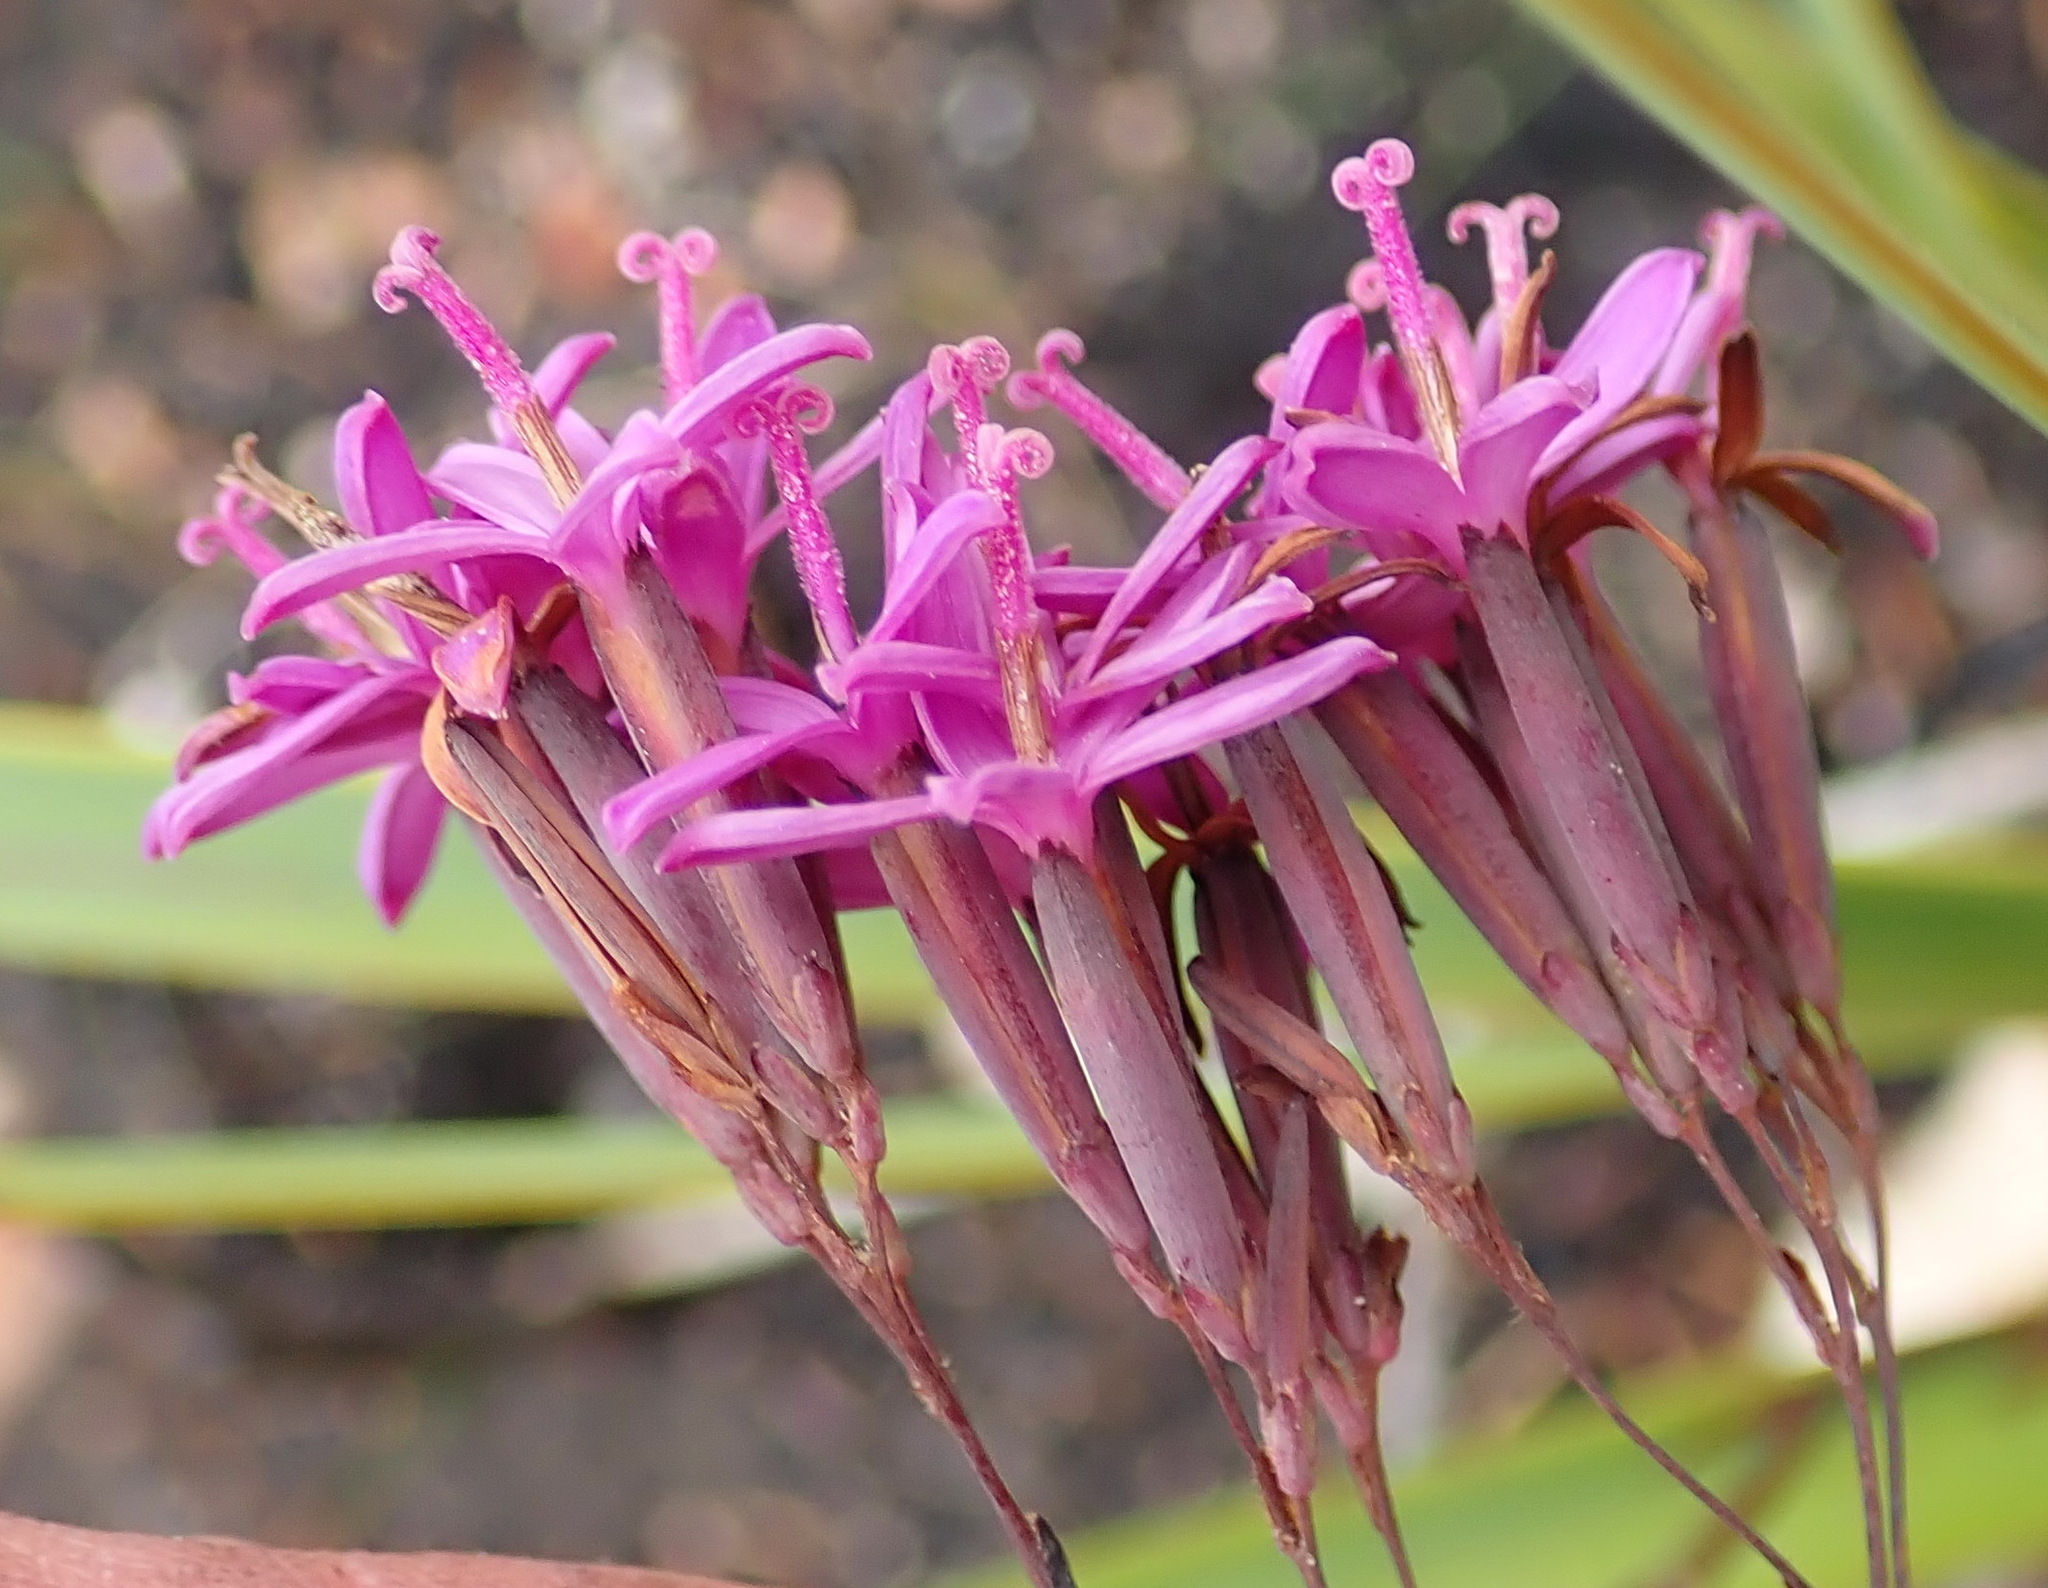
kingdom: Plantae
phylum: Tracheophyta
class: Magnoliopsida
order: Asterales
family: Asteraceae
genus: Corymbium
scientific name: Corymbium glabrum
